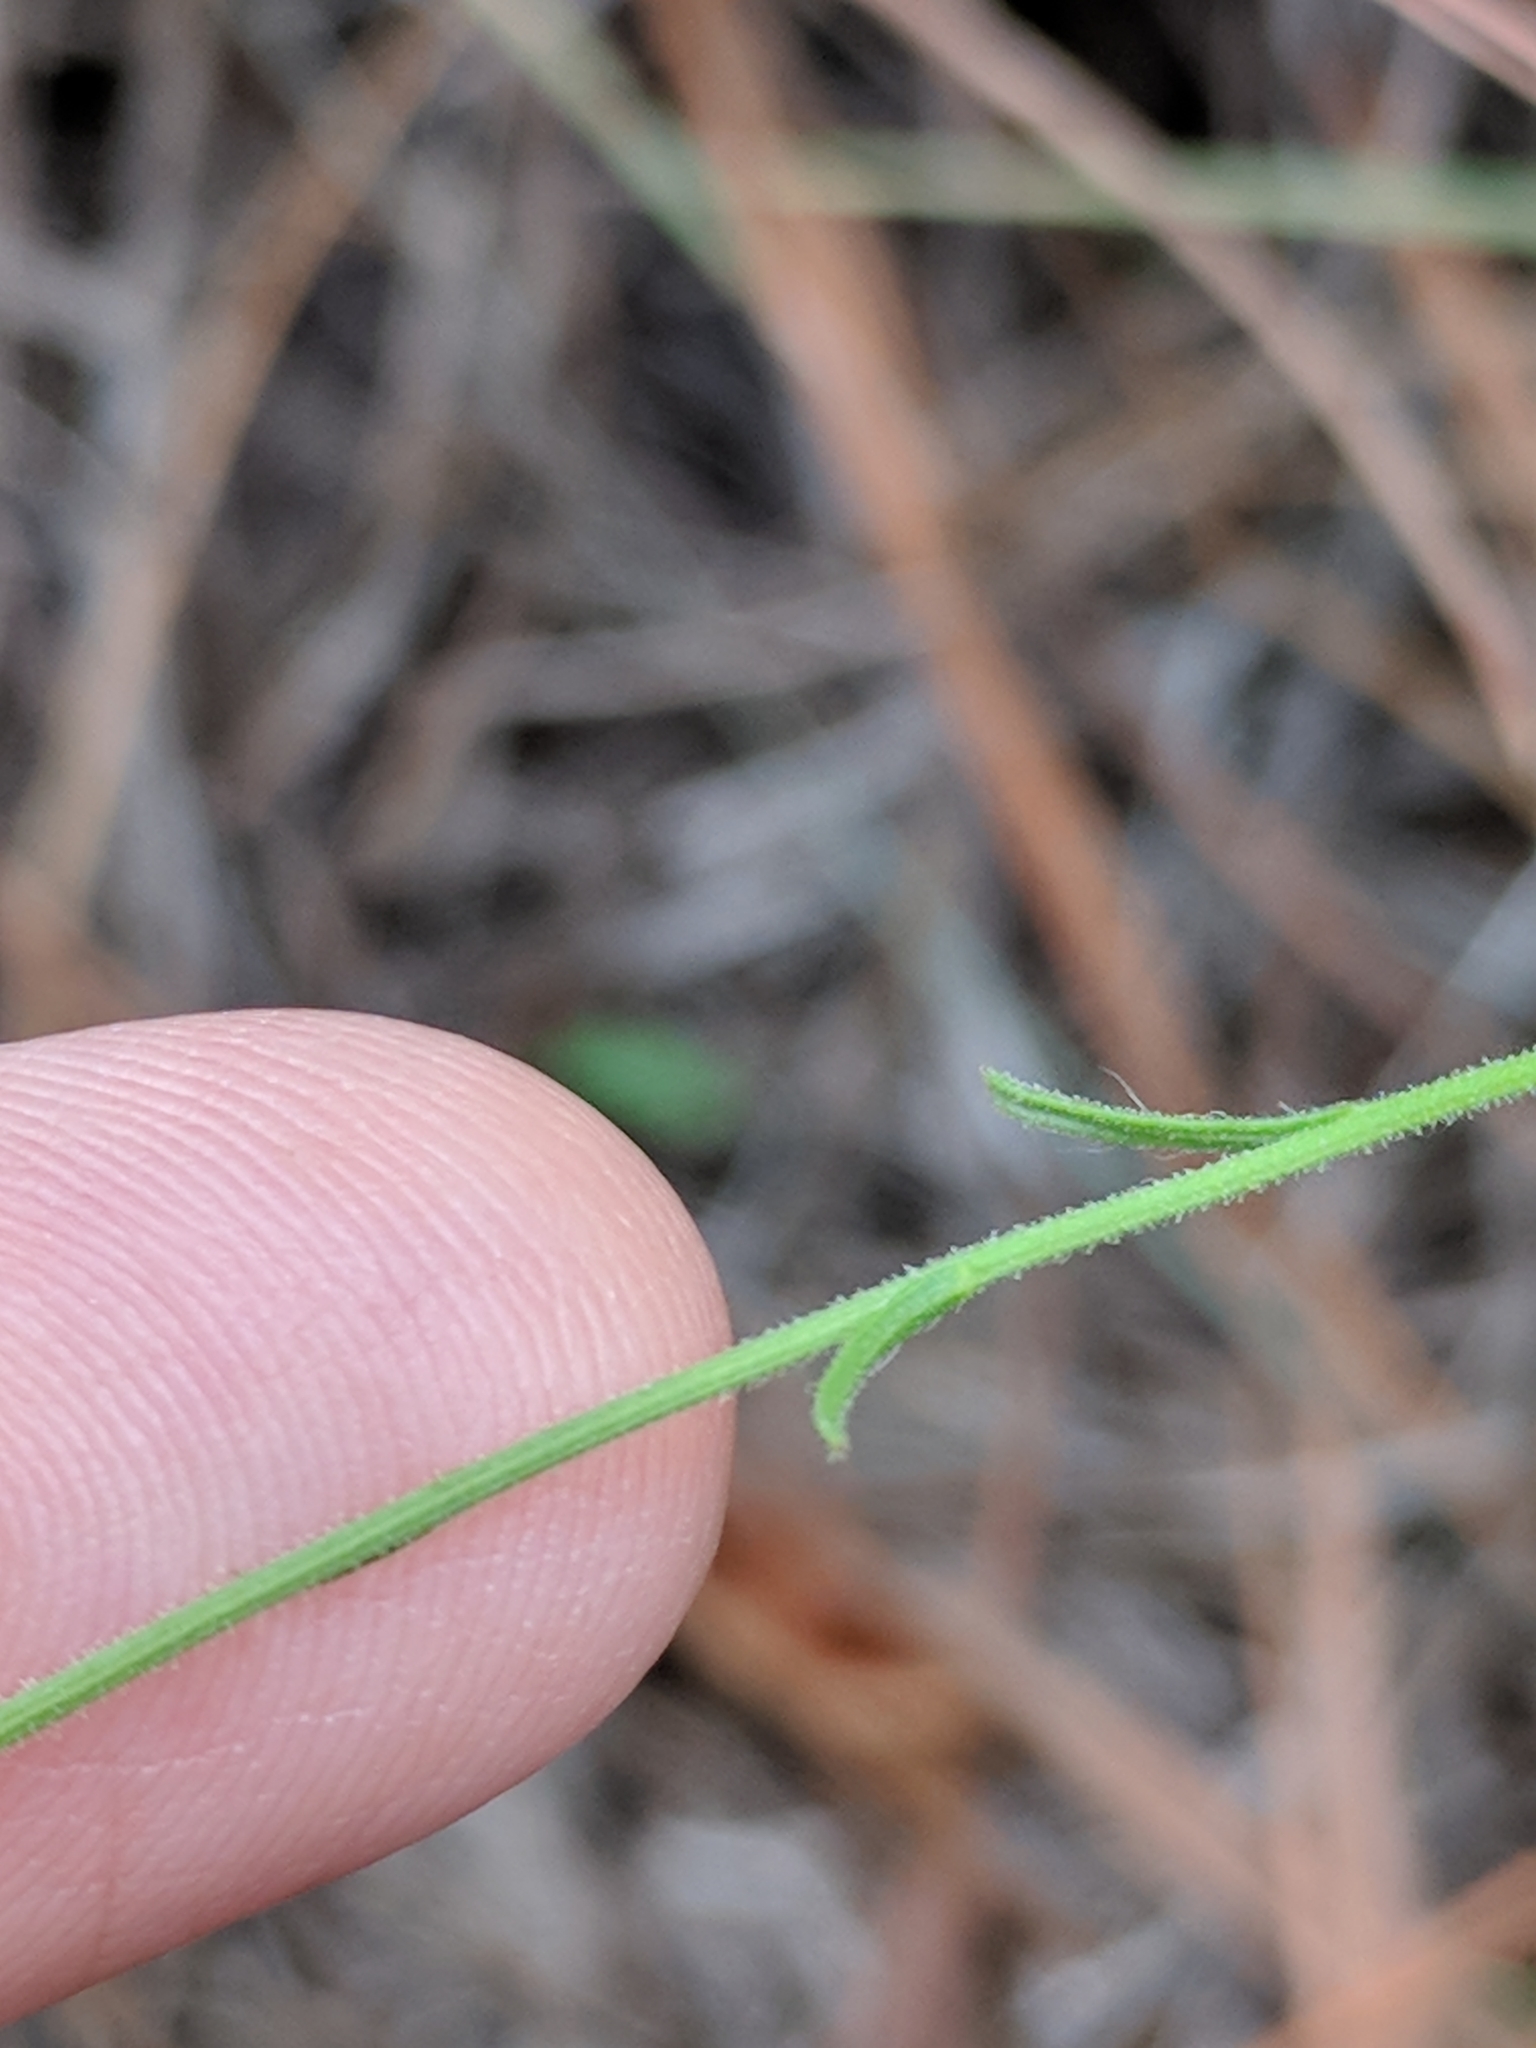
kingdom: Plantae
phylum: Tracheophyta
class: Magnoliopsida
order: Asterales
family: Asteraceae
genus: Croptilon
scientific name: Croptilon hookerianum
